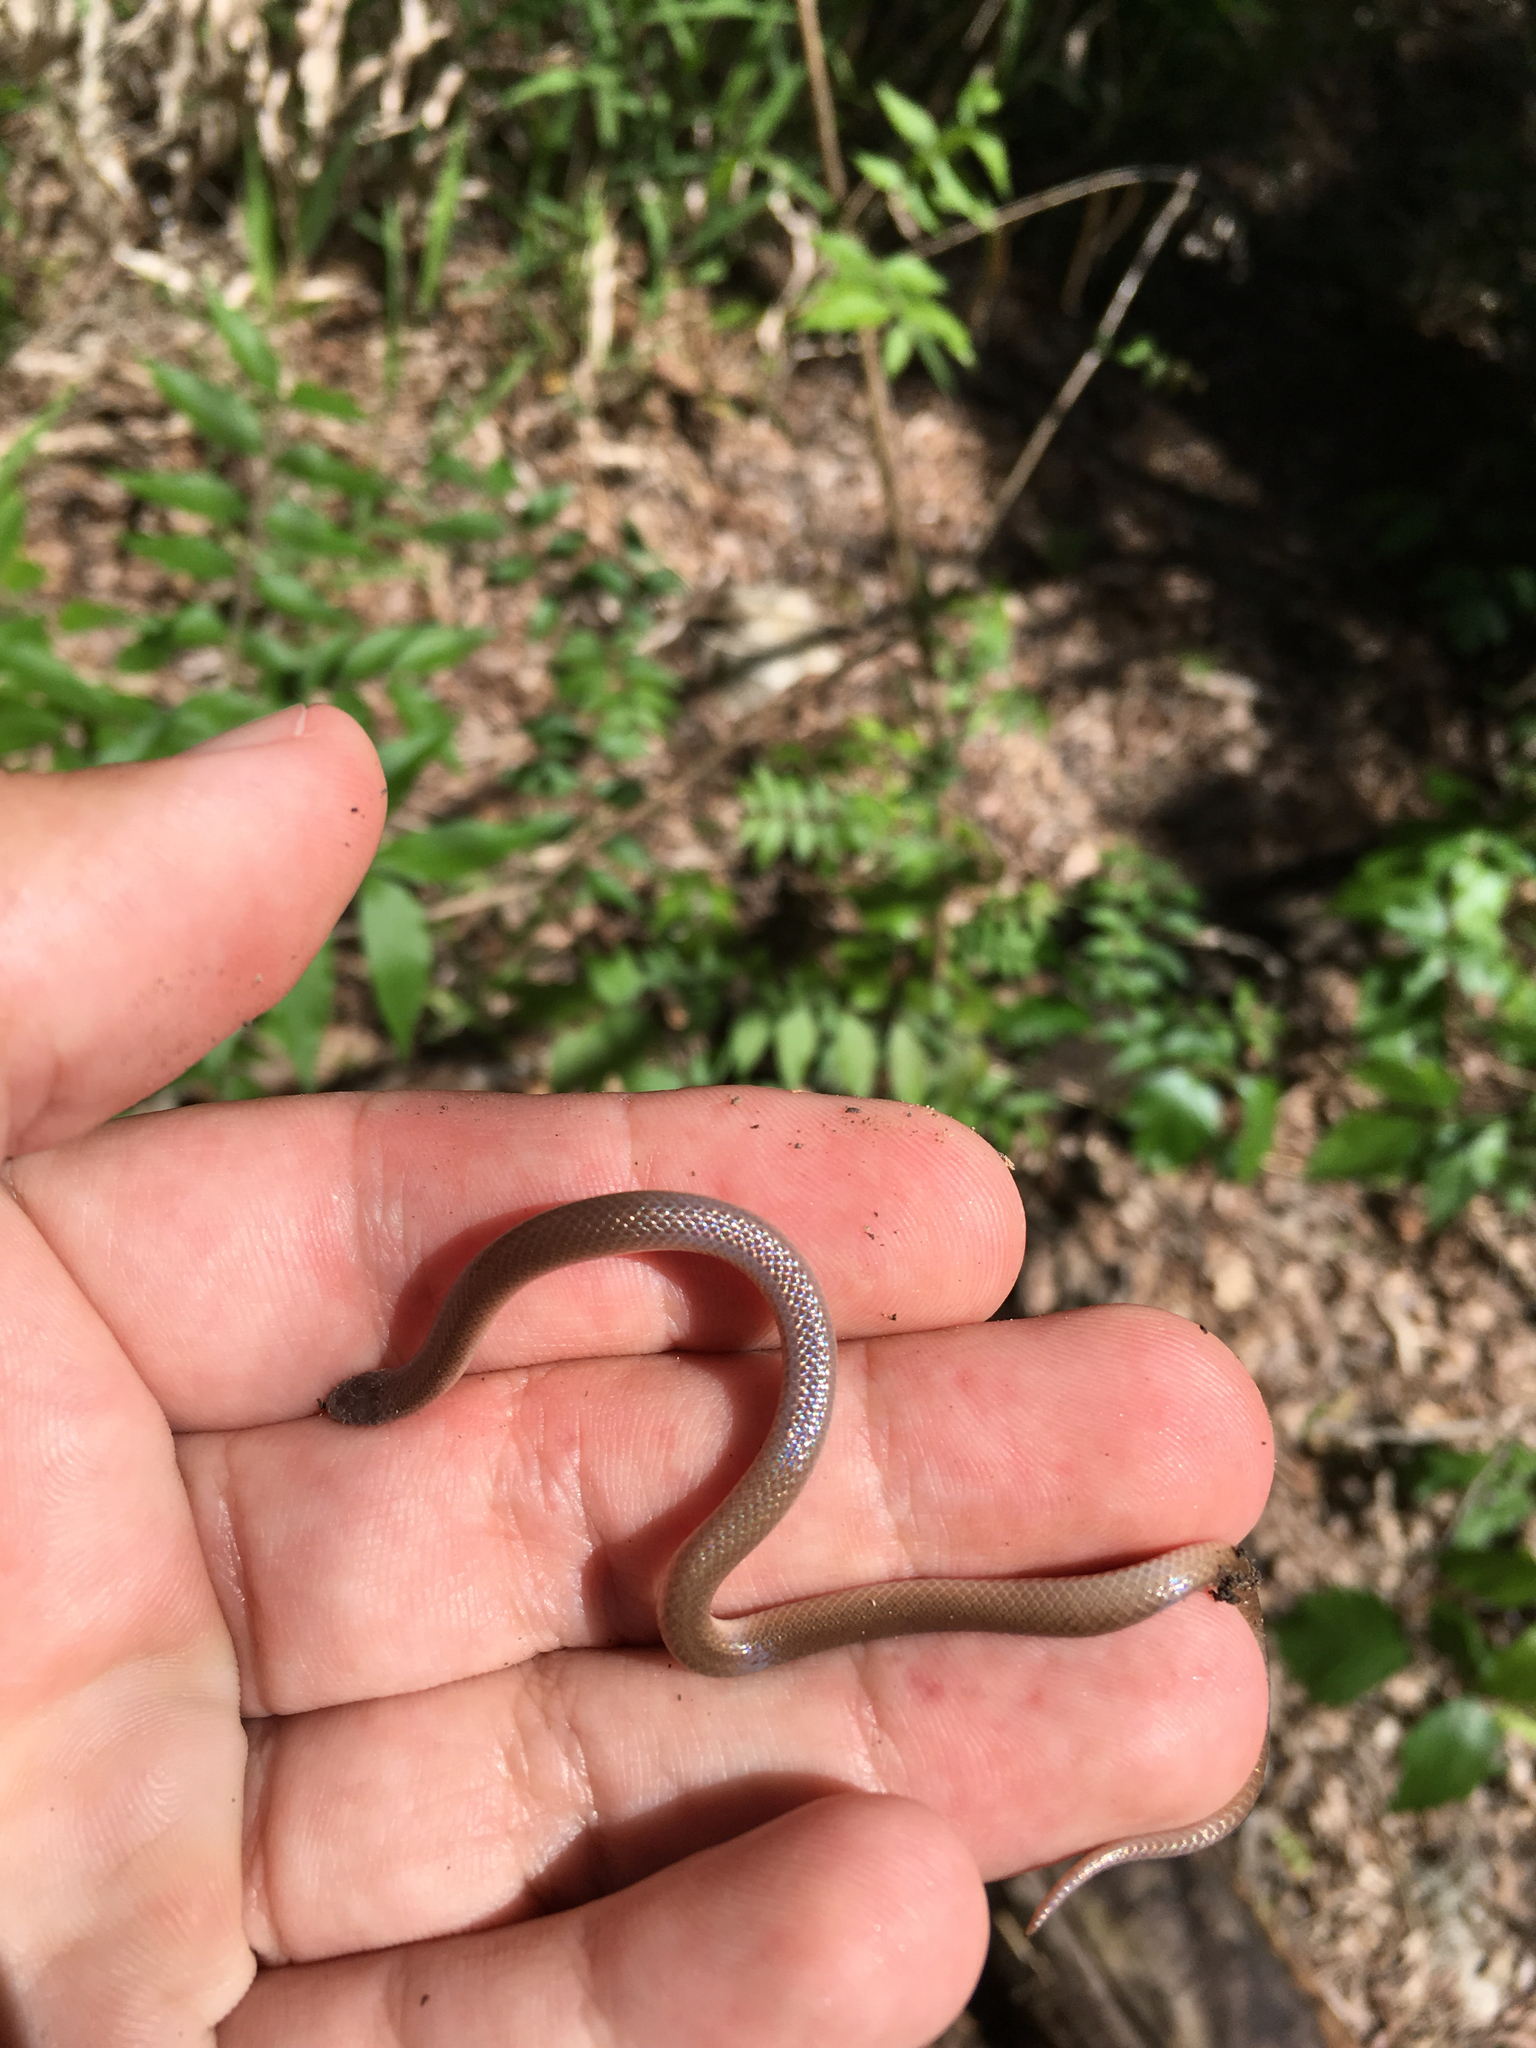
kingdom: Animalia
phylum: Chordata
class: Squamata
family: Colubridae
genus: Tantilla
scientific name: Tantilla gracilis
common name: Flathead snake
